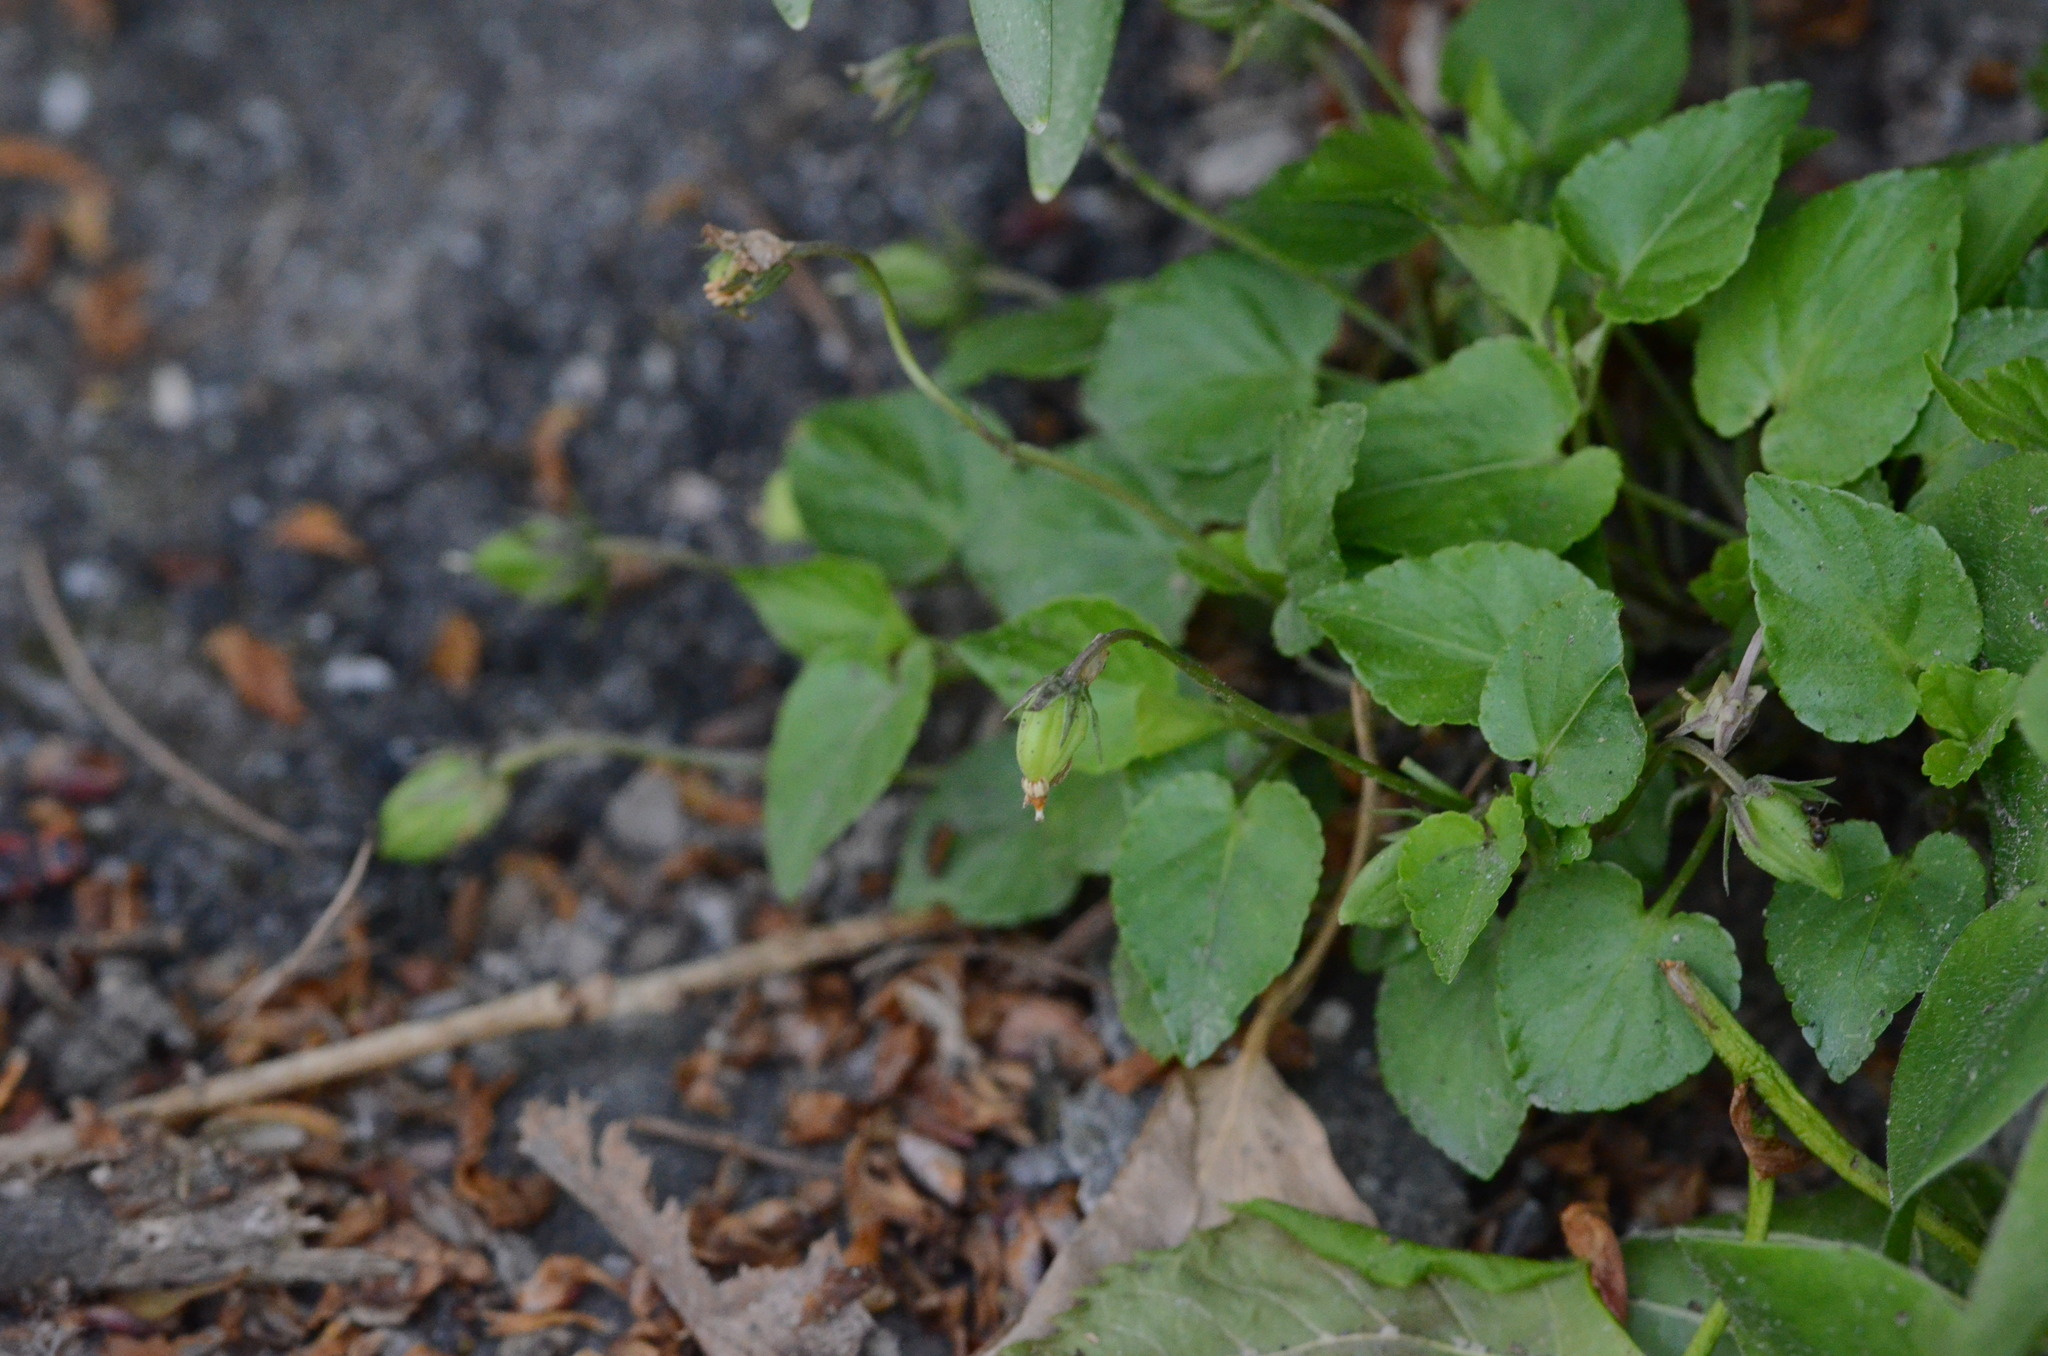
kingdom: Plantae
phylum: Tracheophyta
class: Magnoliopsida
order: Malpighiales
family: Violaceae
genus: Viola
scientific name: Viola reichenbachiana
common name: Early dog-violet
